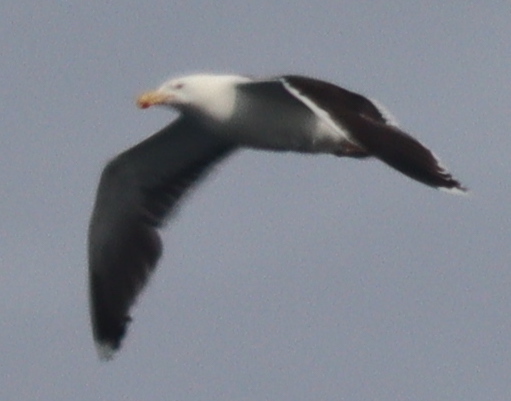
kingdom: Animalia
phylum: Chordata
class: Aves
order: Charadriiformes
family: Laridae
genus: Larus
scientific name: Larus marinus
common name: Great black-backed gull
